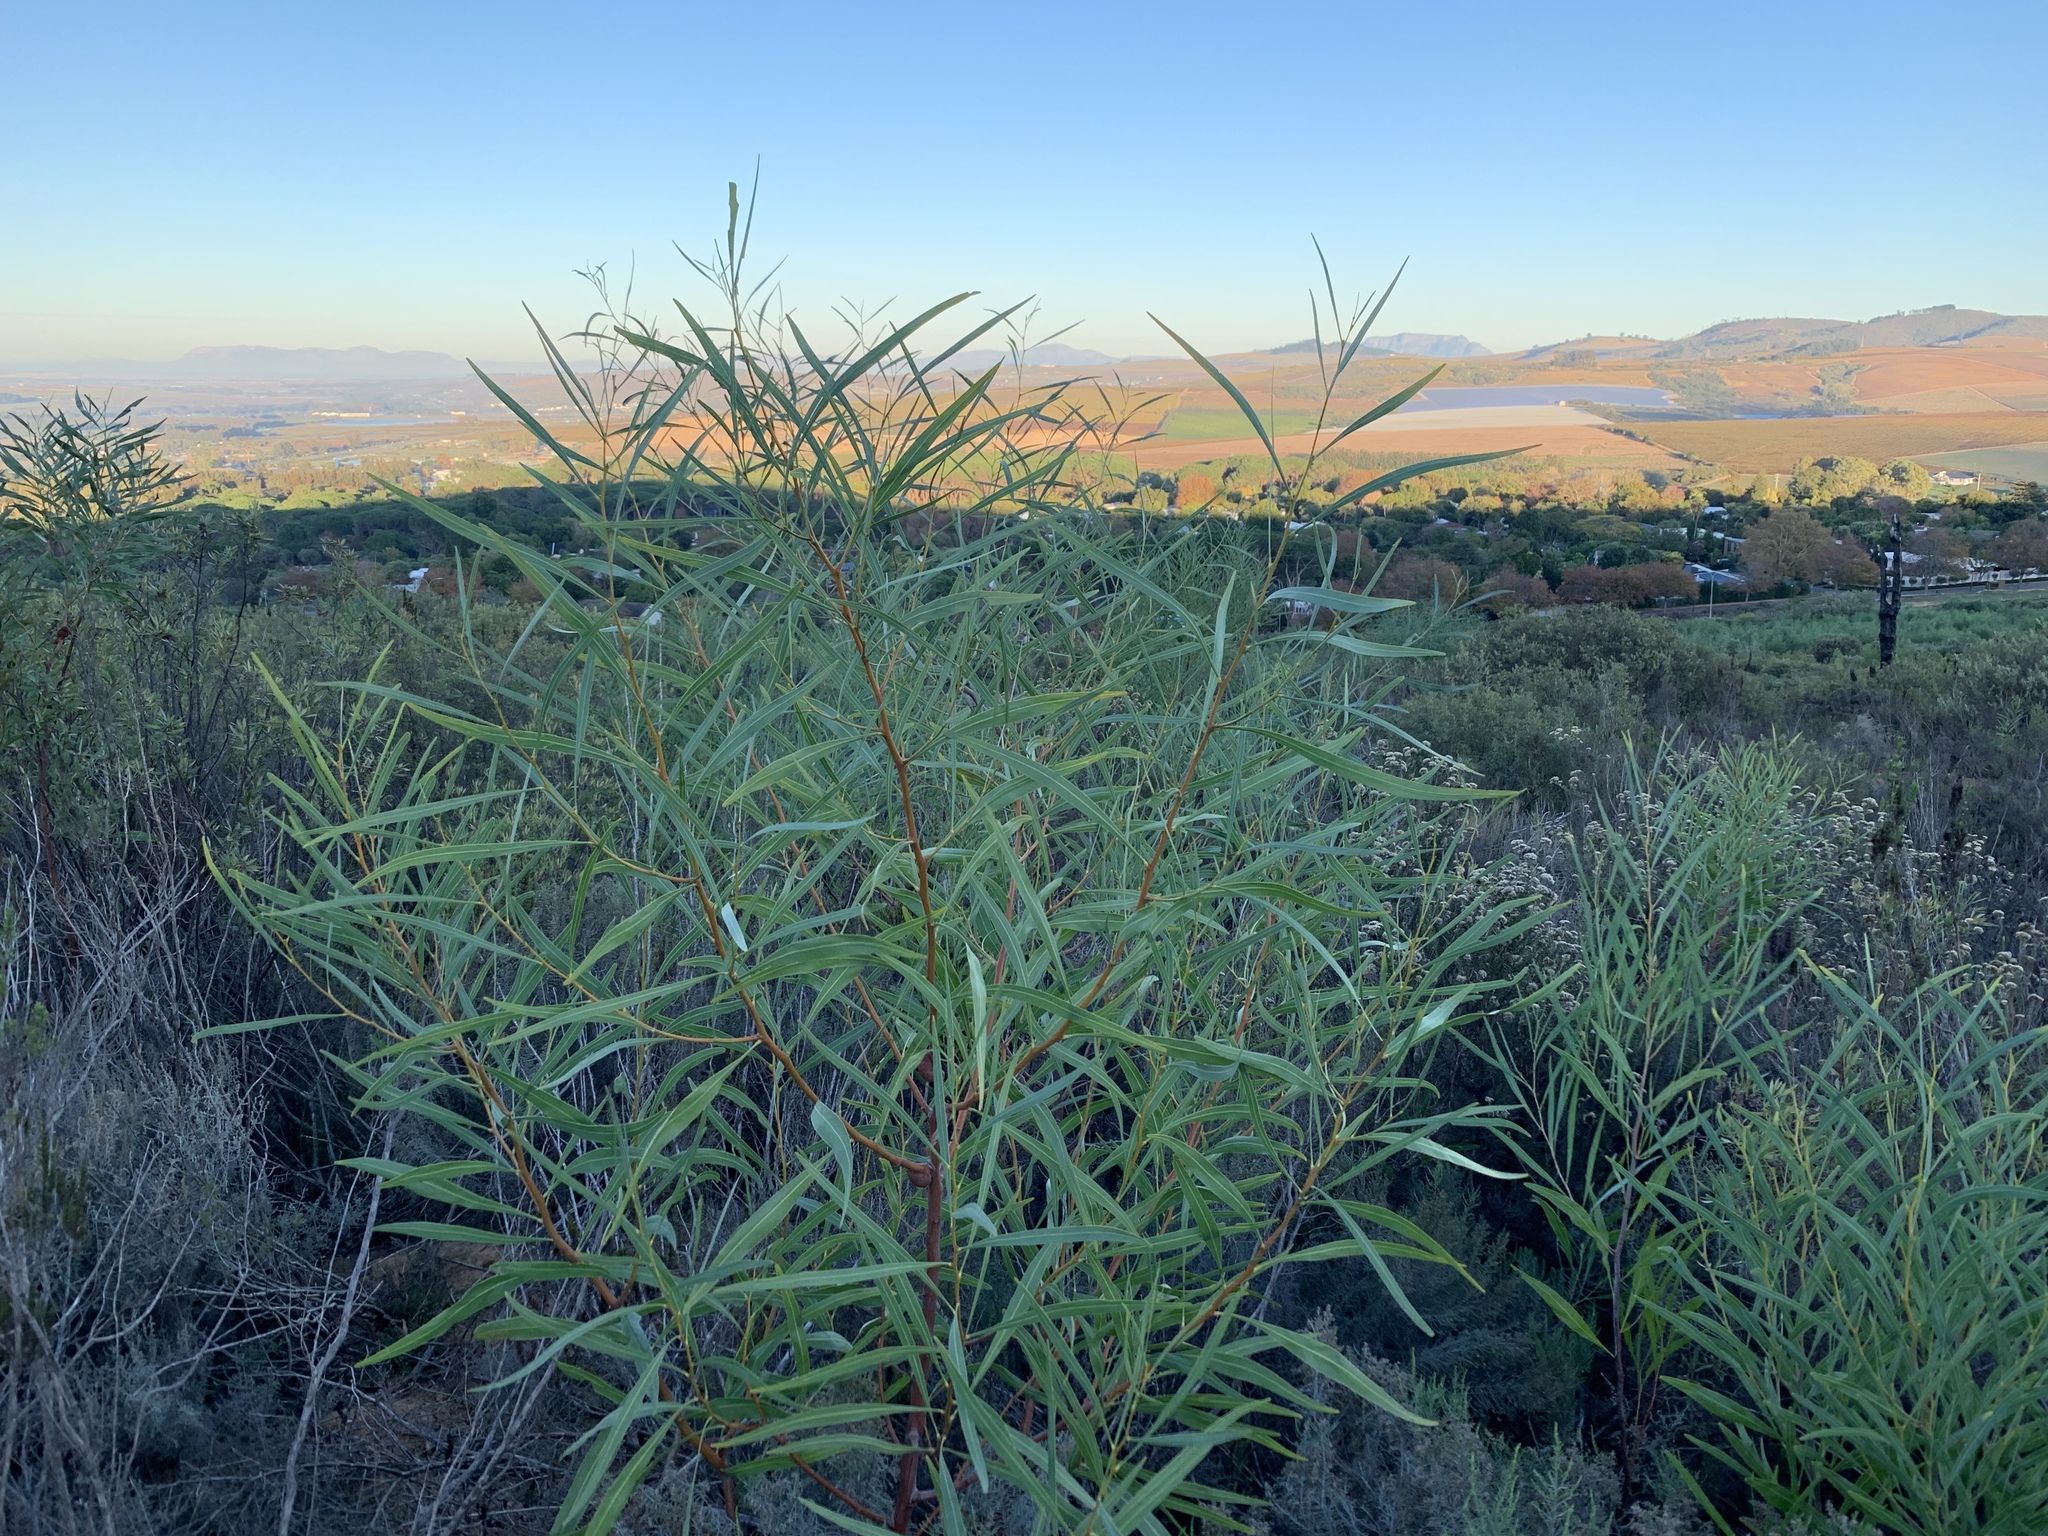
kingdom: Plantae
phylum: Tracheophyta
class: Magnoliopsida
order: Fabales
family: Fabaceae
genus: Acacia
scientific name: Acacia saligna
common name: Orange wattle
